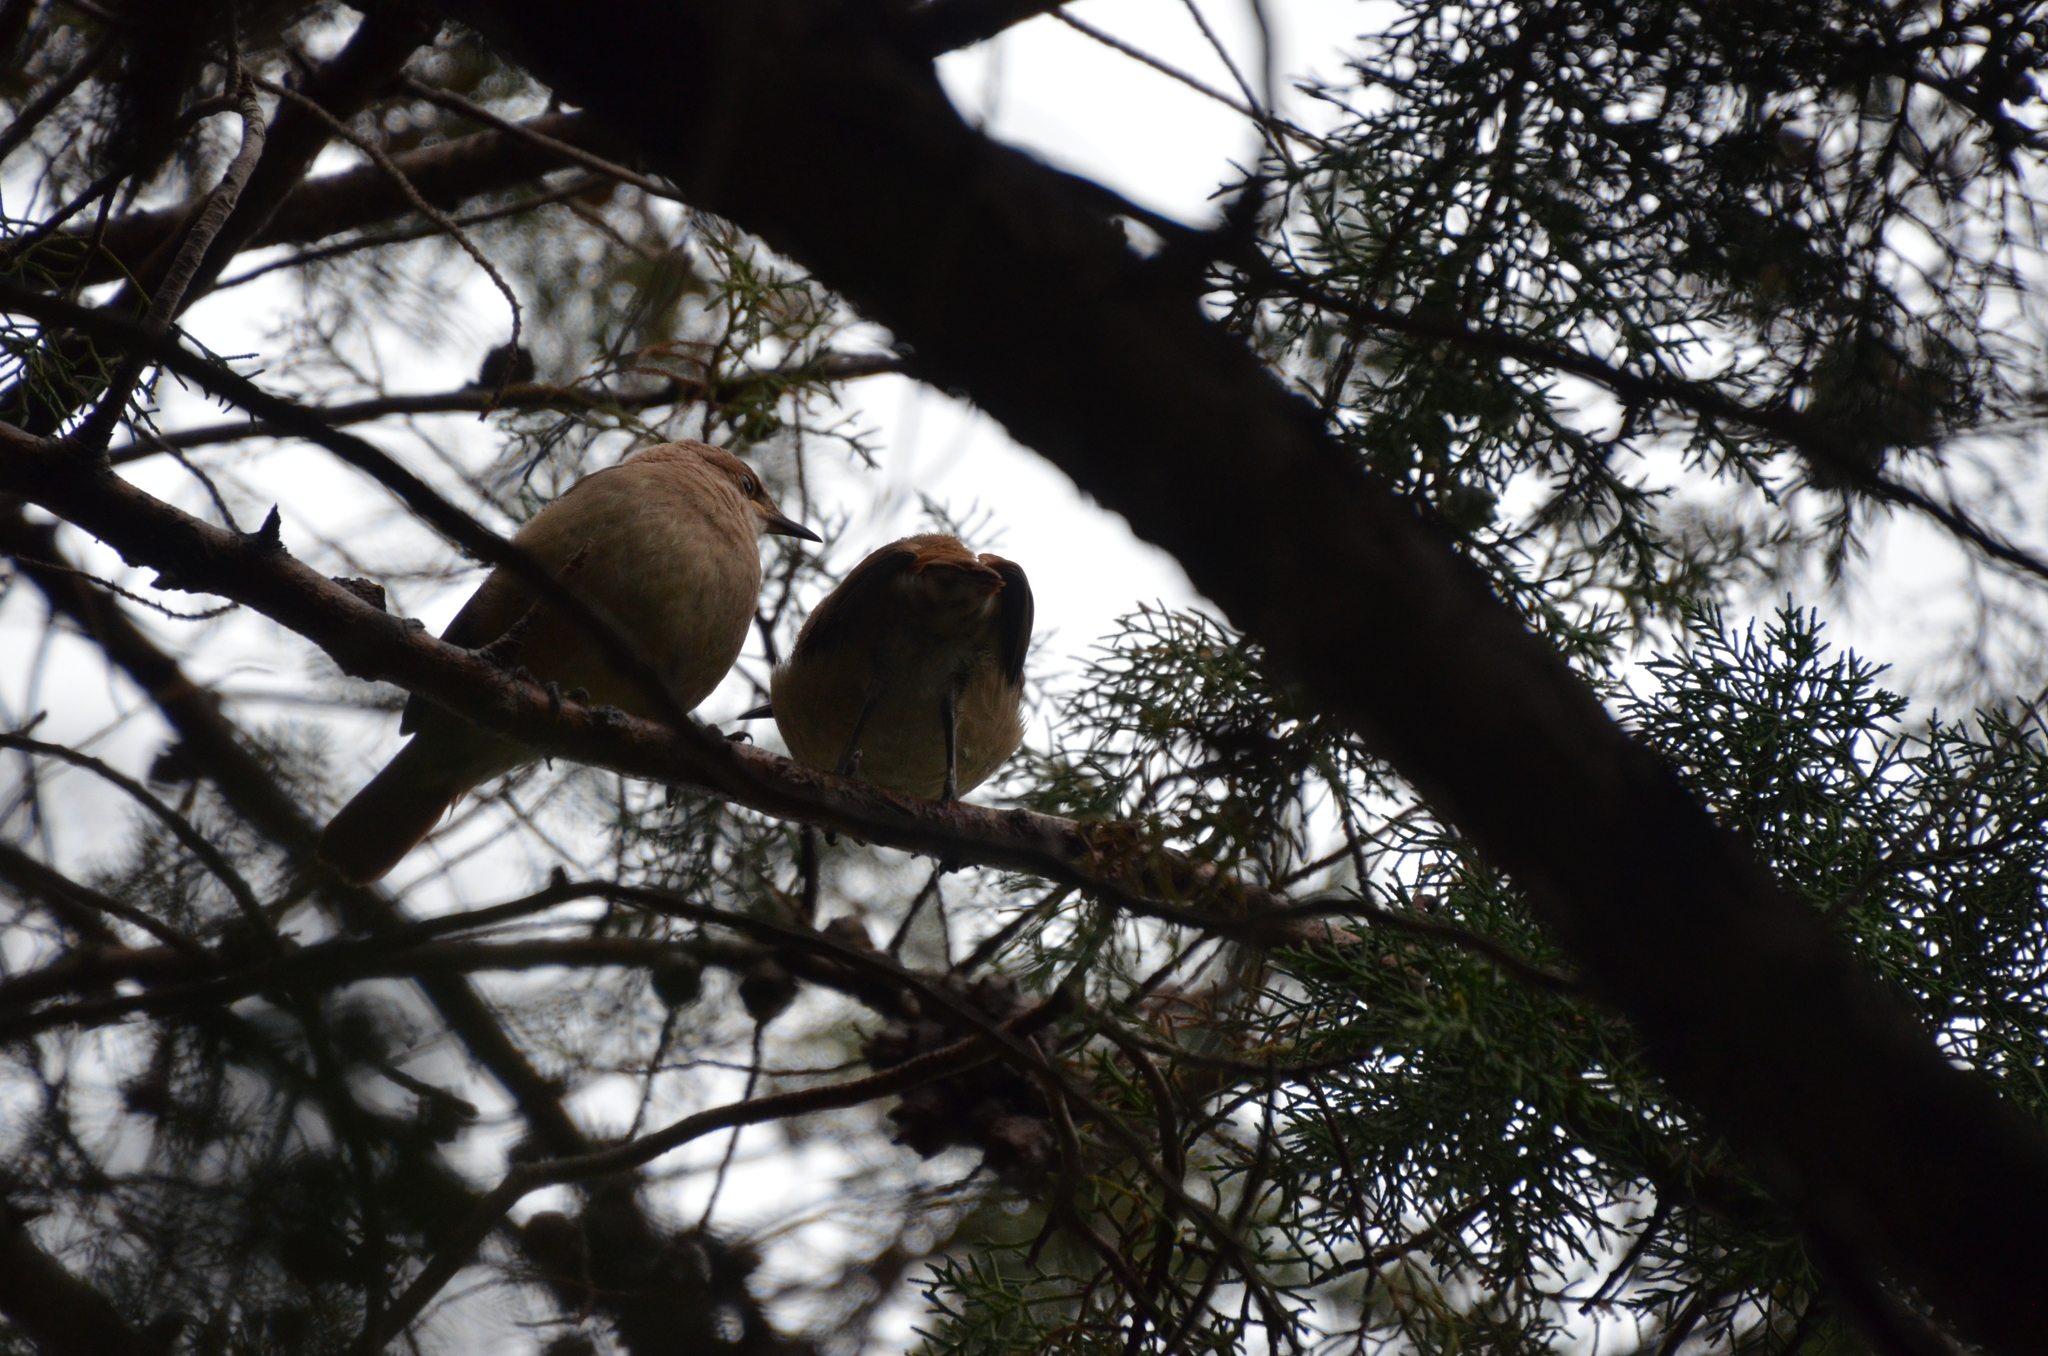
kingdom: Animalia
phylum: Chordata
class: Aves
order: Passeriformes
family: Furnariidae
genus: Furnarius
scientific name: Furnarius rufus
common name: Rufous hornero
